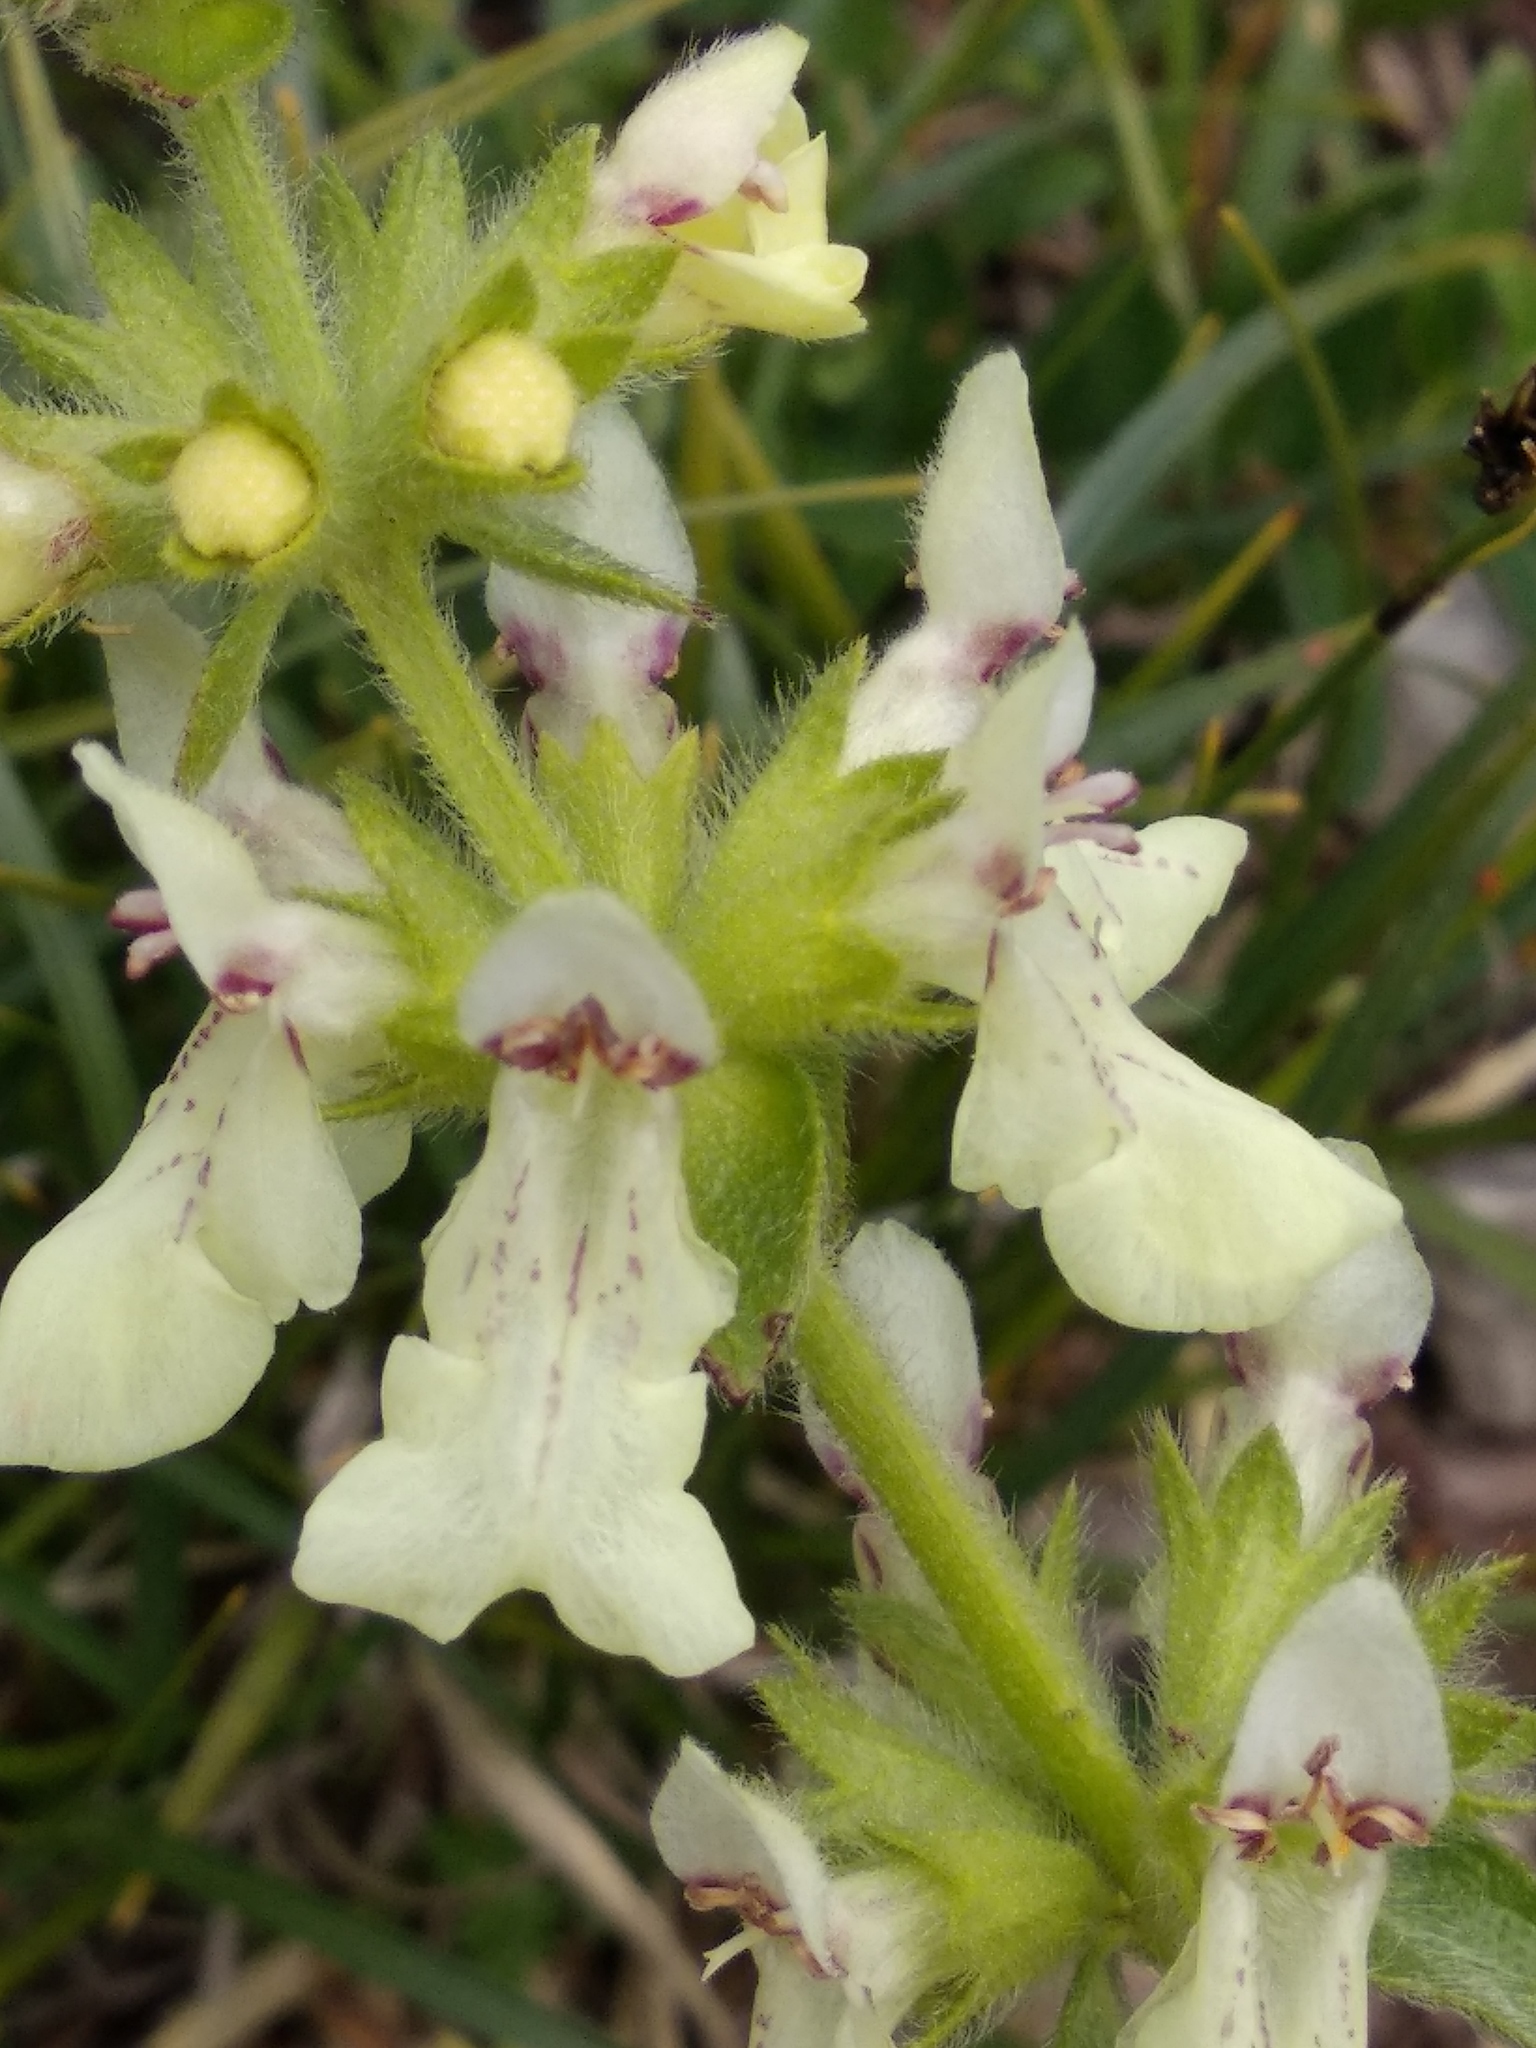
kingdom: Plantae
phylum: Tracheophyta
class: Magnoliopsida
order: Lamiales
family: Lamiaceae
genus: Stachys
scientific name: Stachys recta
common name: Perennial yellow-woundwort
